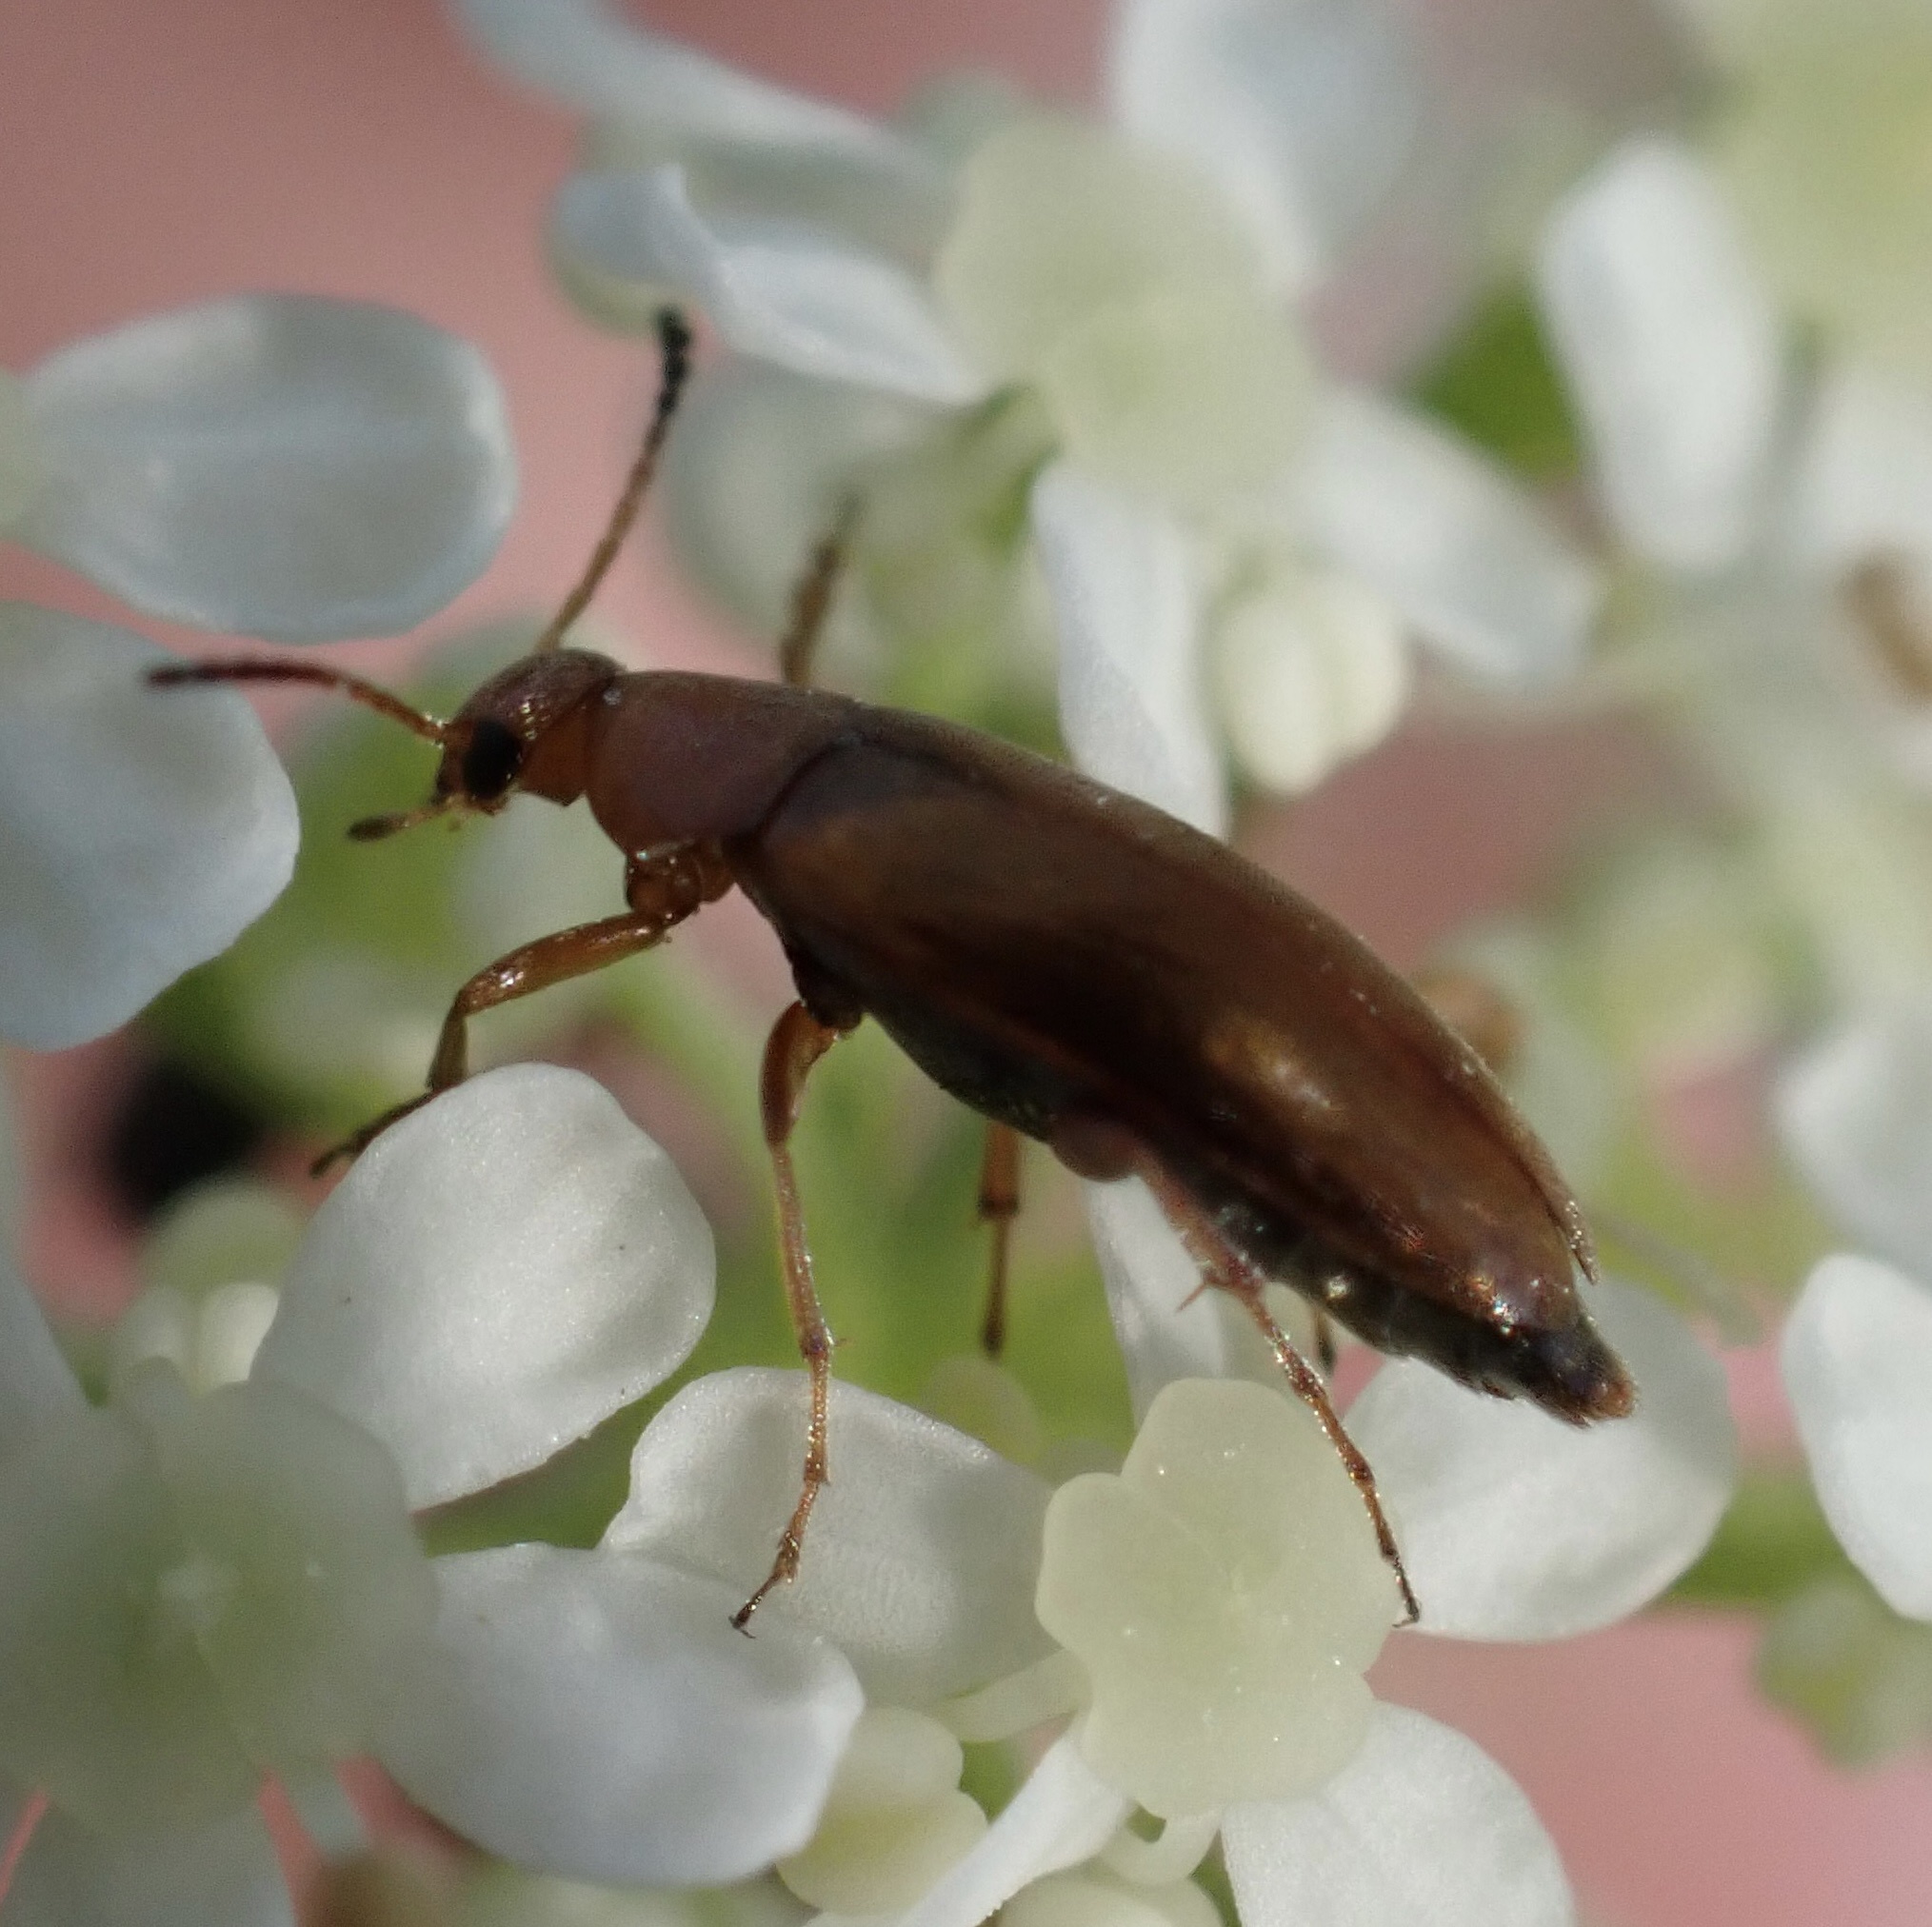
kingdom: Animalia
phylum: Arthropoda
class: Insecta
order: Coleoptera
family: Scraptiidae
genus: Anaspis
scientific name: Anaspis maculata
